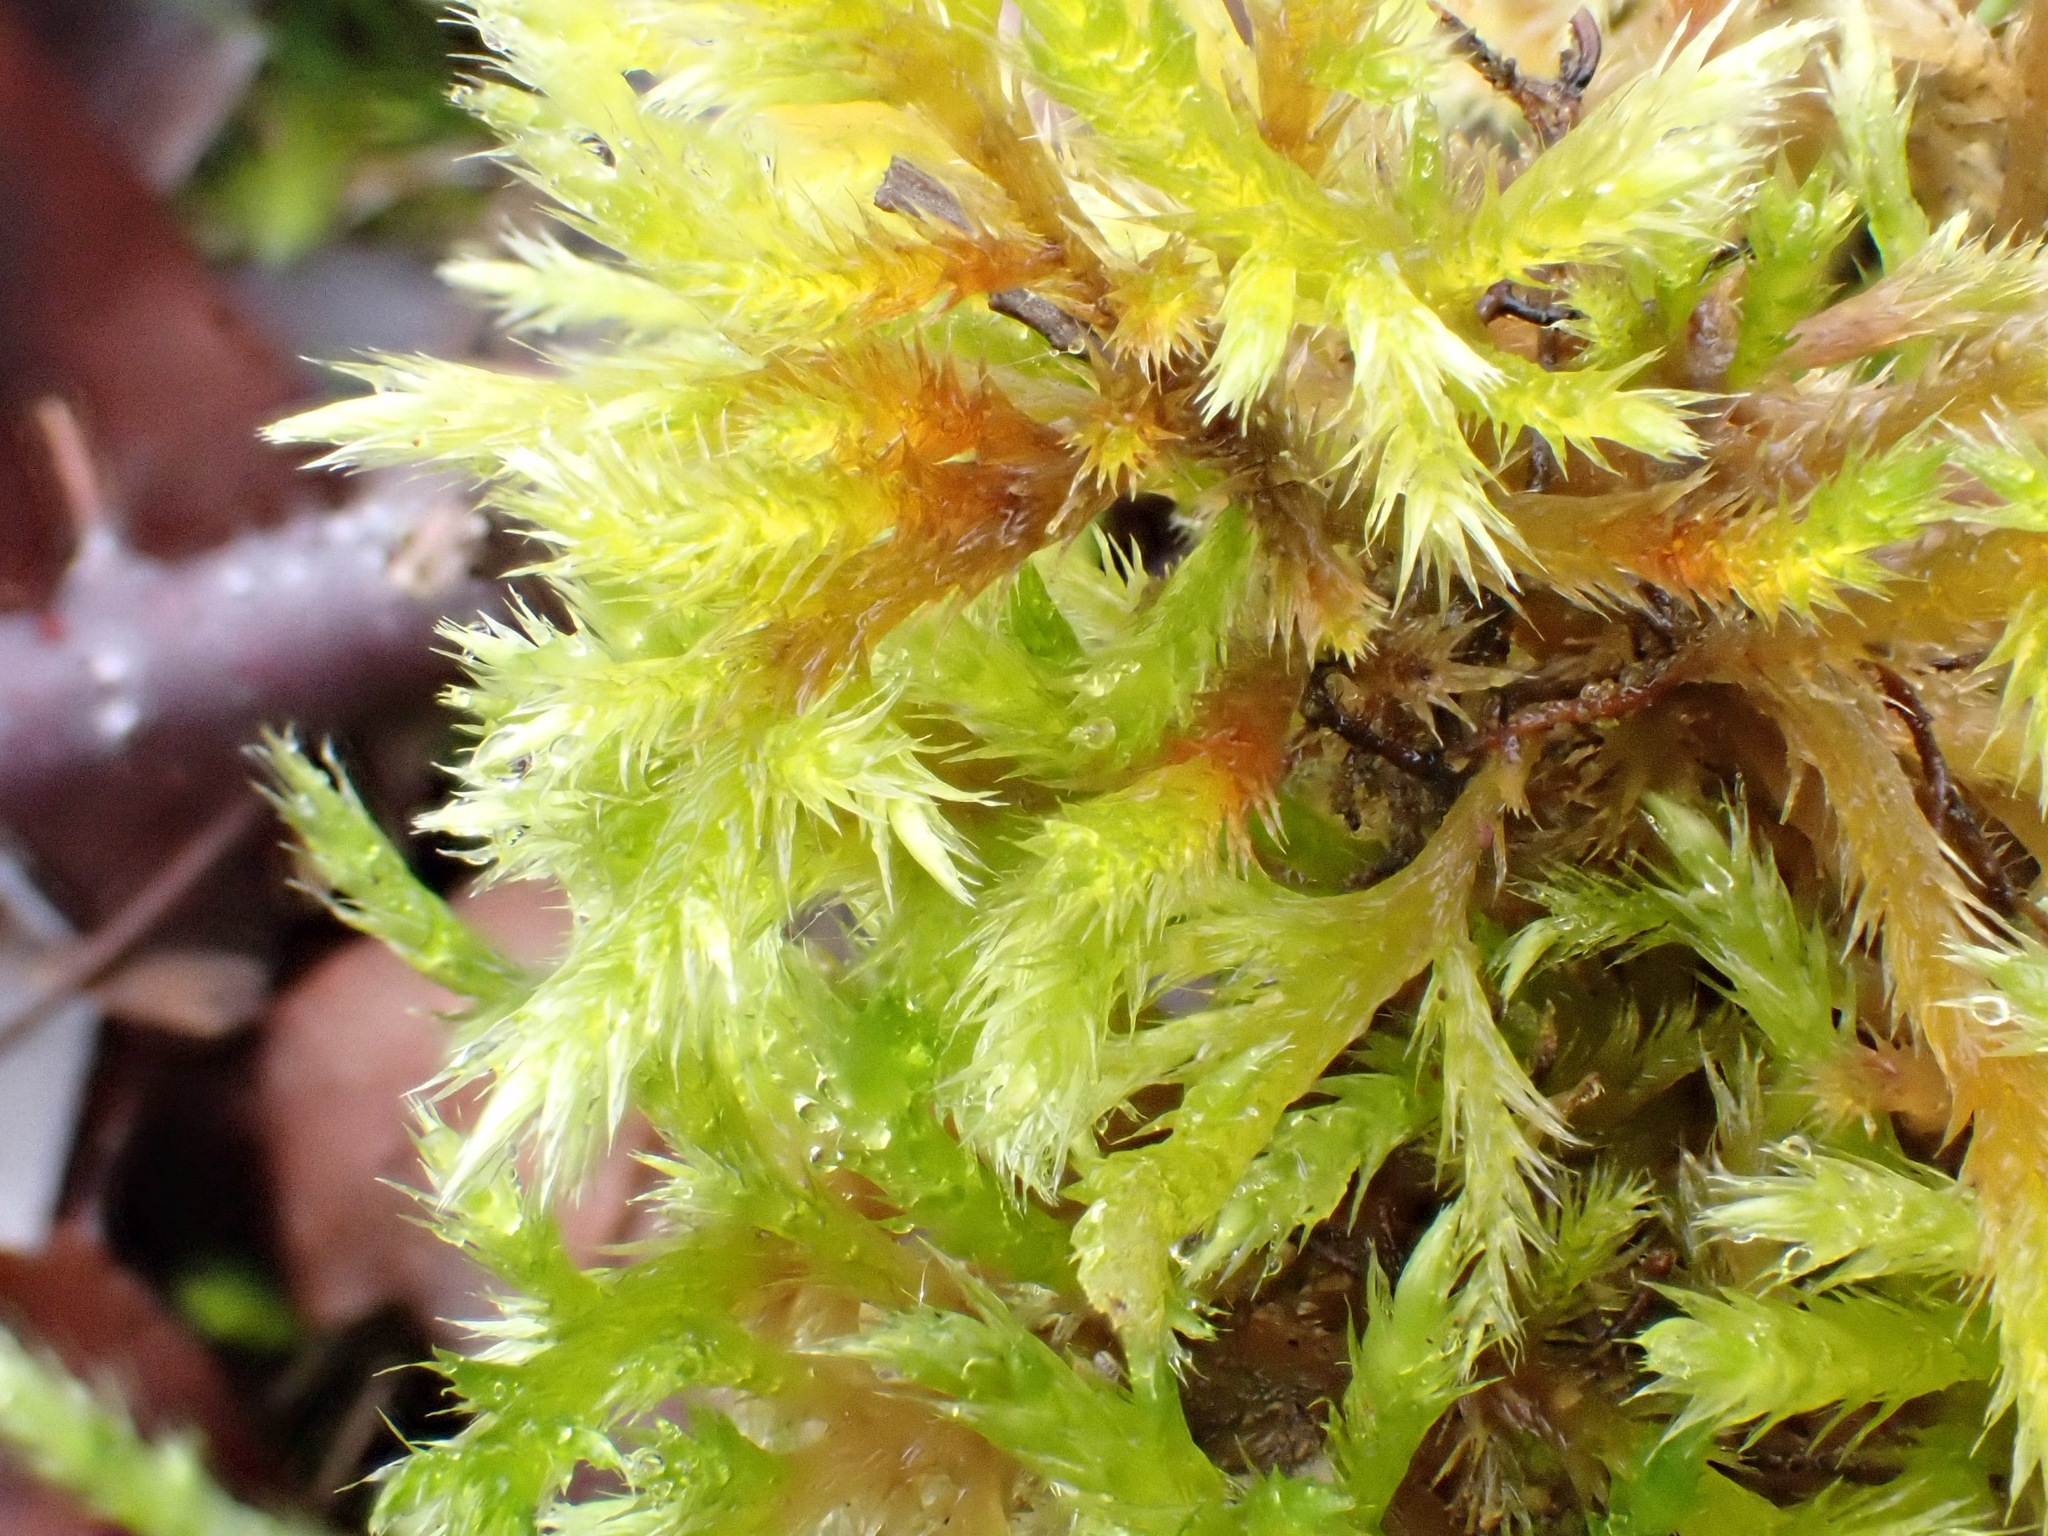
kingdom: Plantae
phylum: Bryophyta
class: Bryopsida
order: Hypnales
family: Brachytheciaceae
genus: Homalothecium
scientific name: Homalothecium lutescens
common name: Yellow feather-moss
